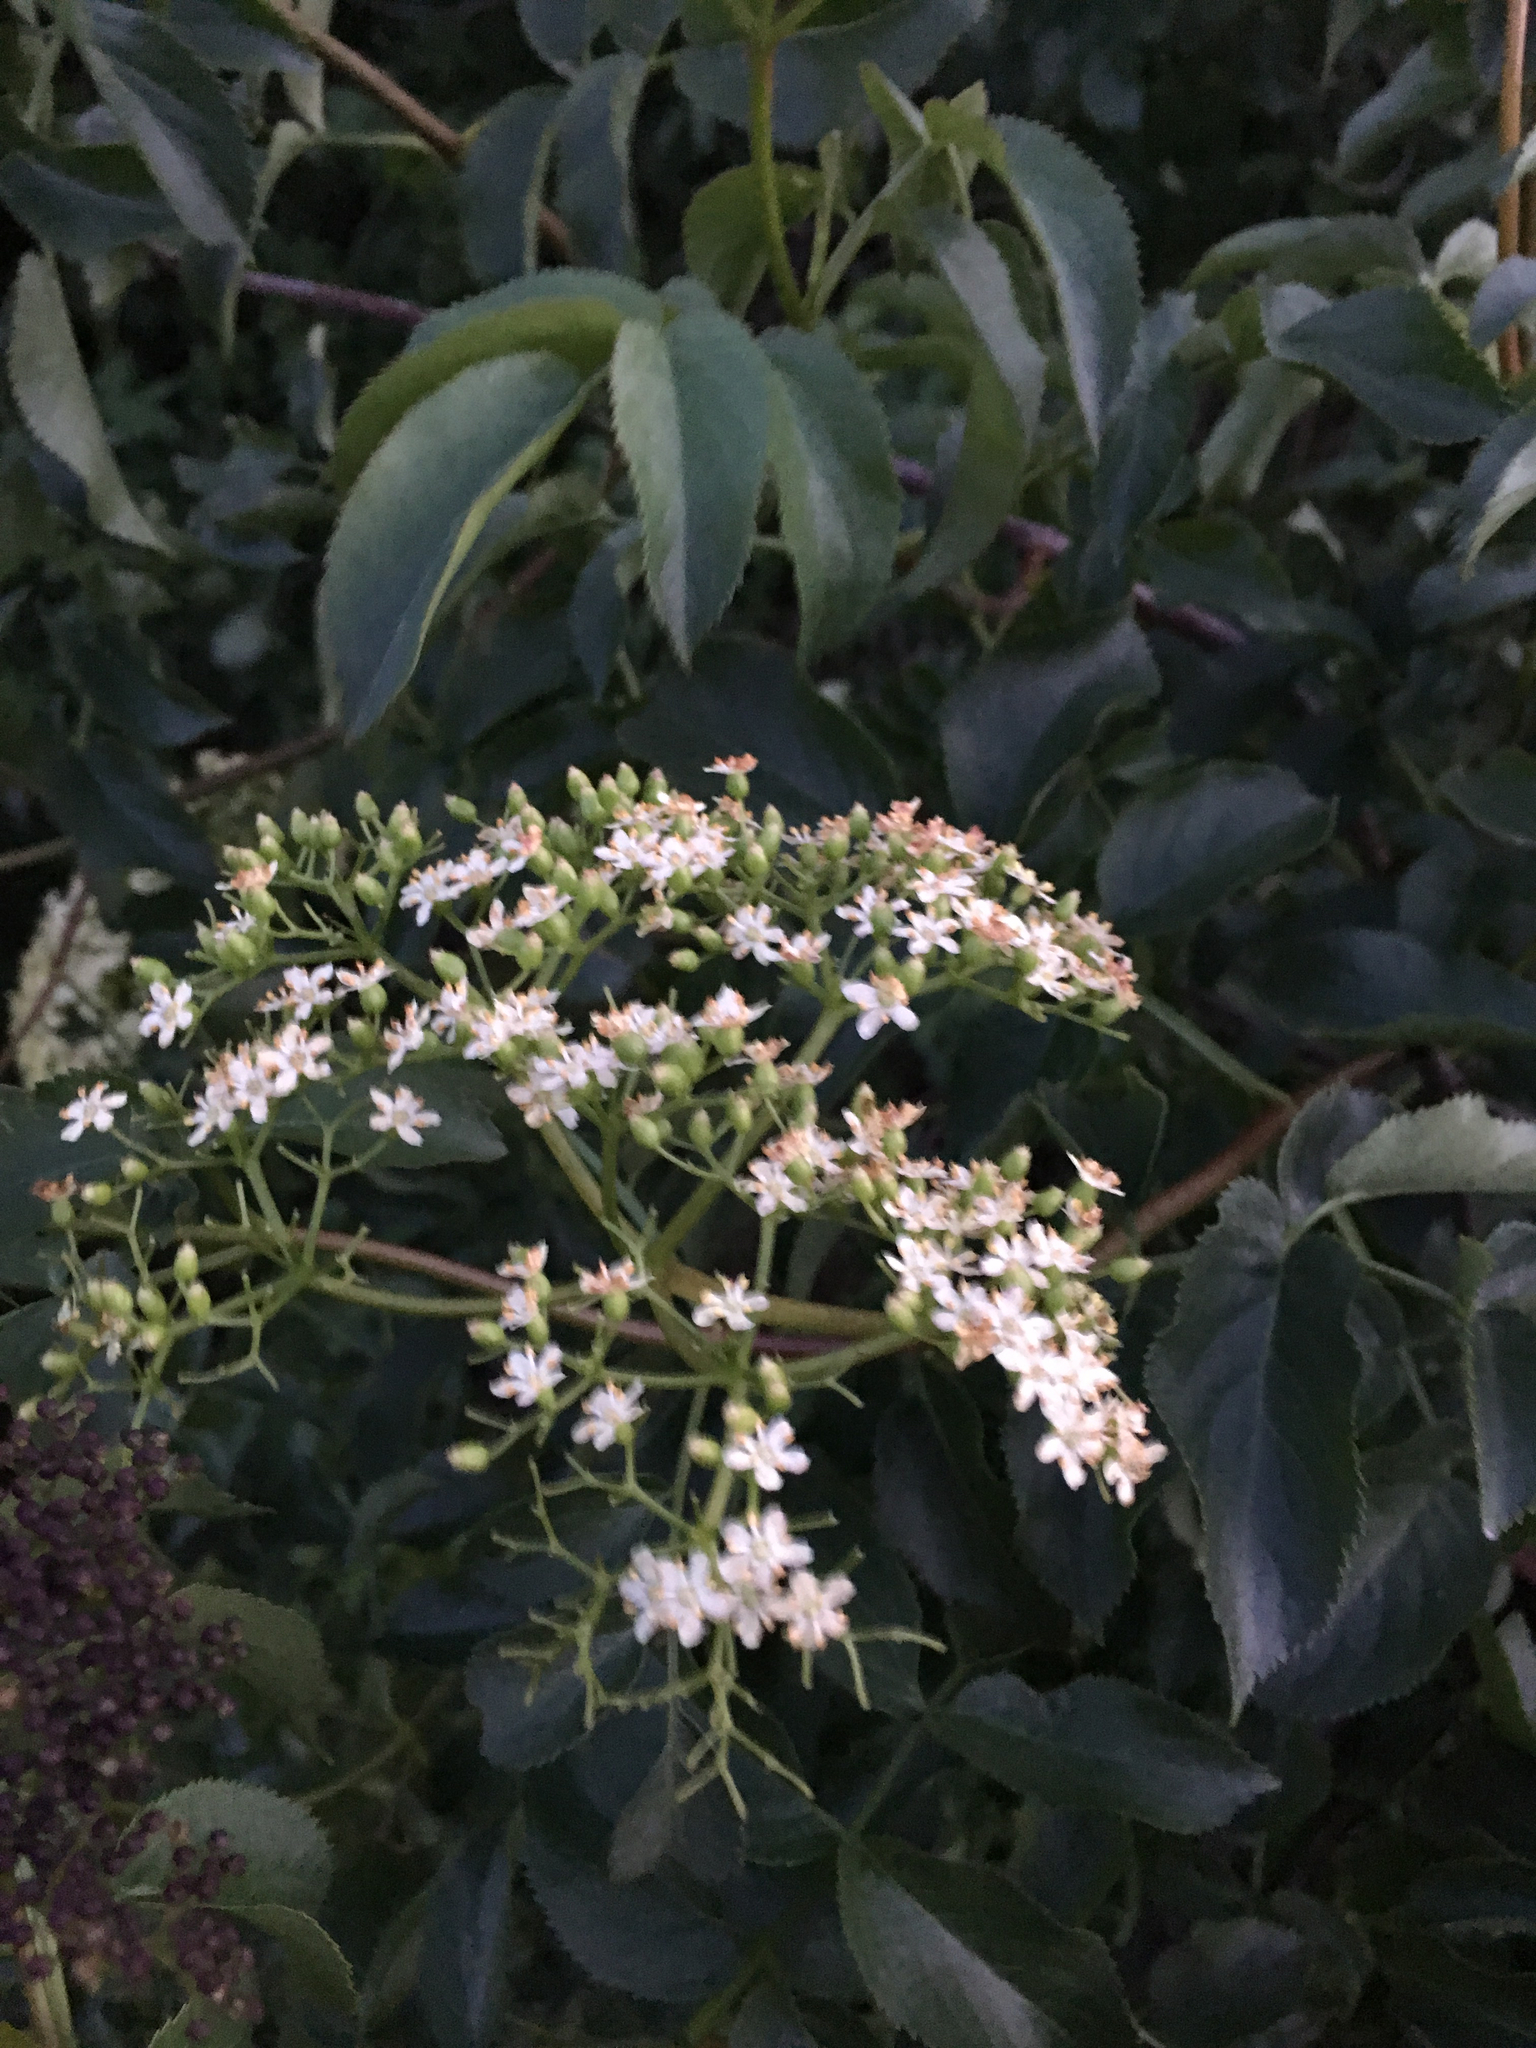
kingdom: Plantae
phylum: Tracheophyta
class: Magnoliopsida
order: Dipsacales
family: Viburnaceae
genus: Sambucus
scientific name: Sambucus cerulea
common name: Blue elder
